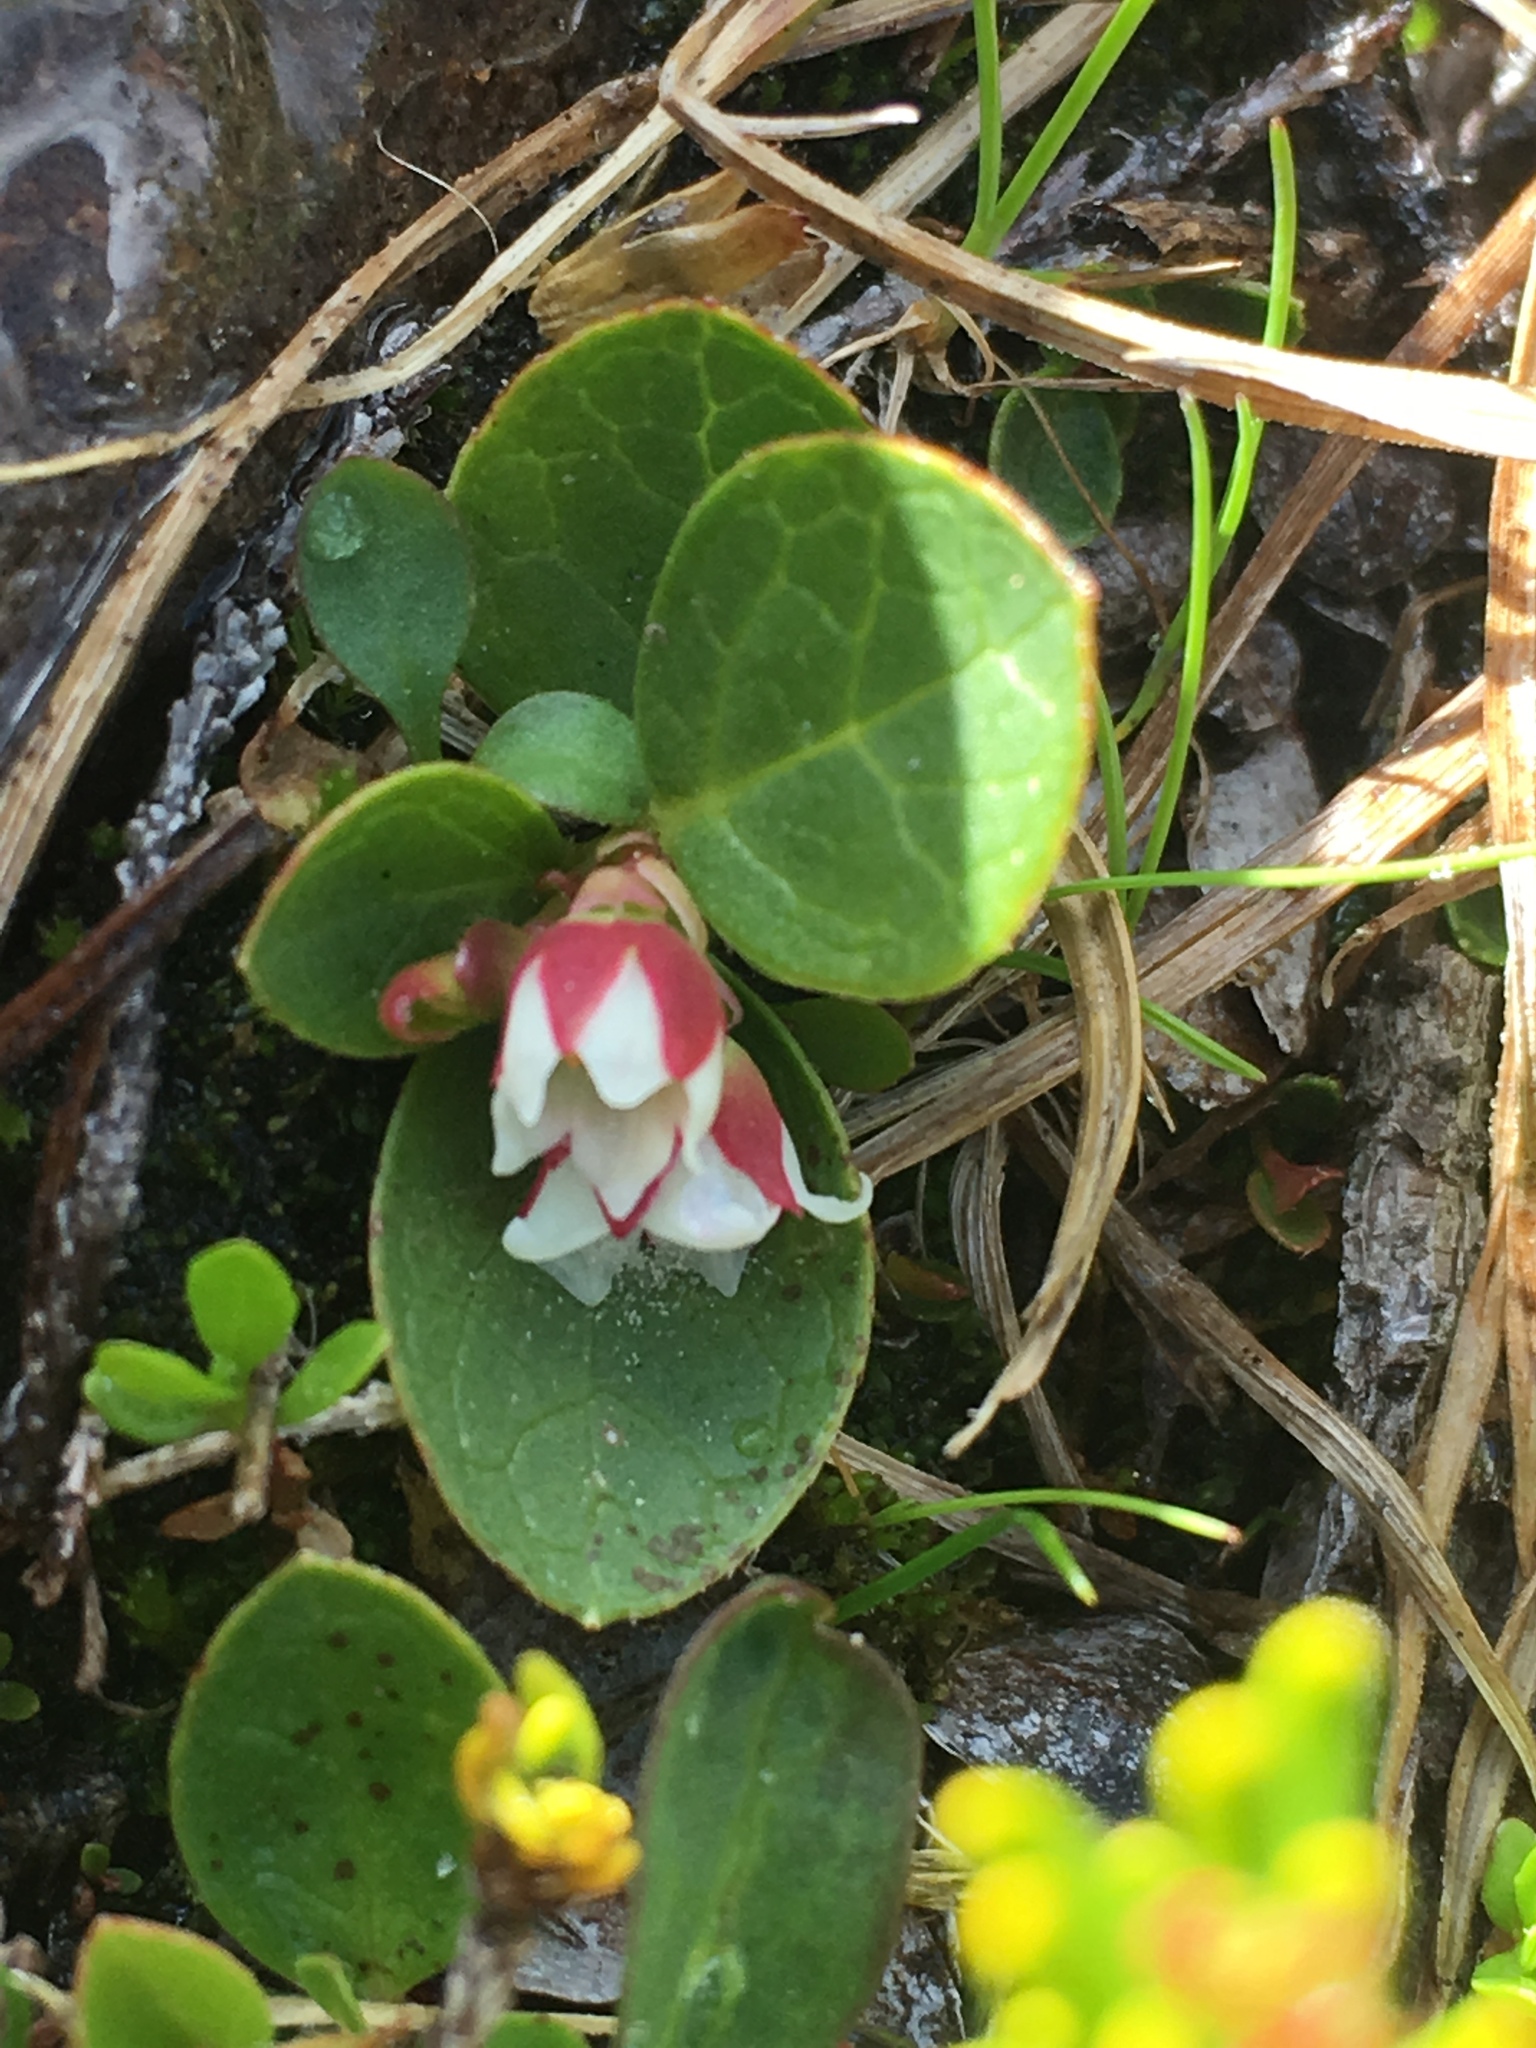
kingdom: Plantae
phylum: Tracheophyta
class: Magnoliopsida
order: Ericales
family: Ericaceae
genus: Gaultheria
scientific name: Gaultheria humifusa
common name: Alpine wintergreen
